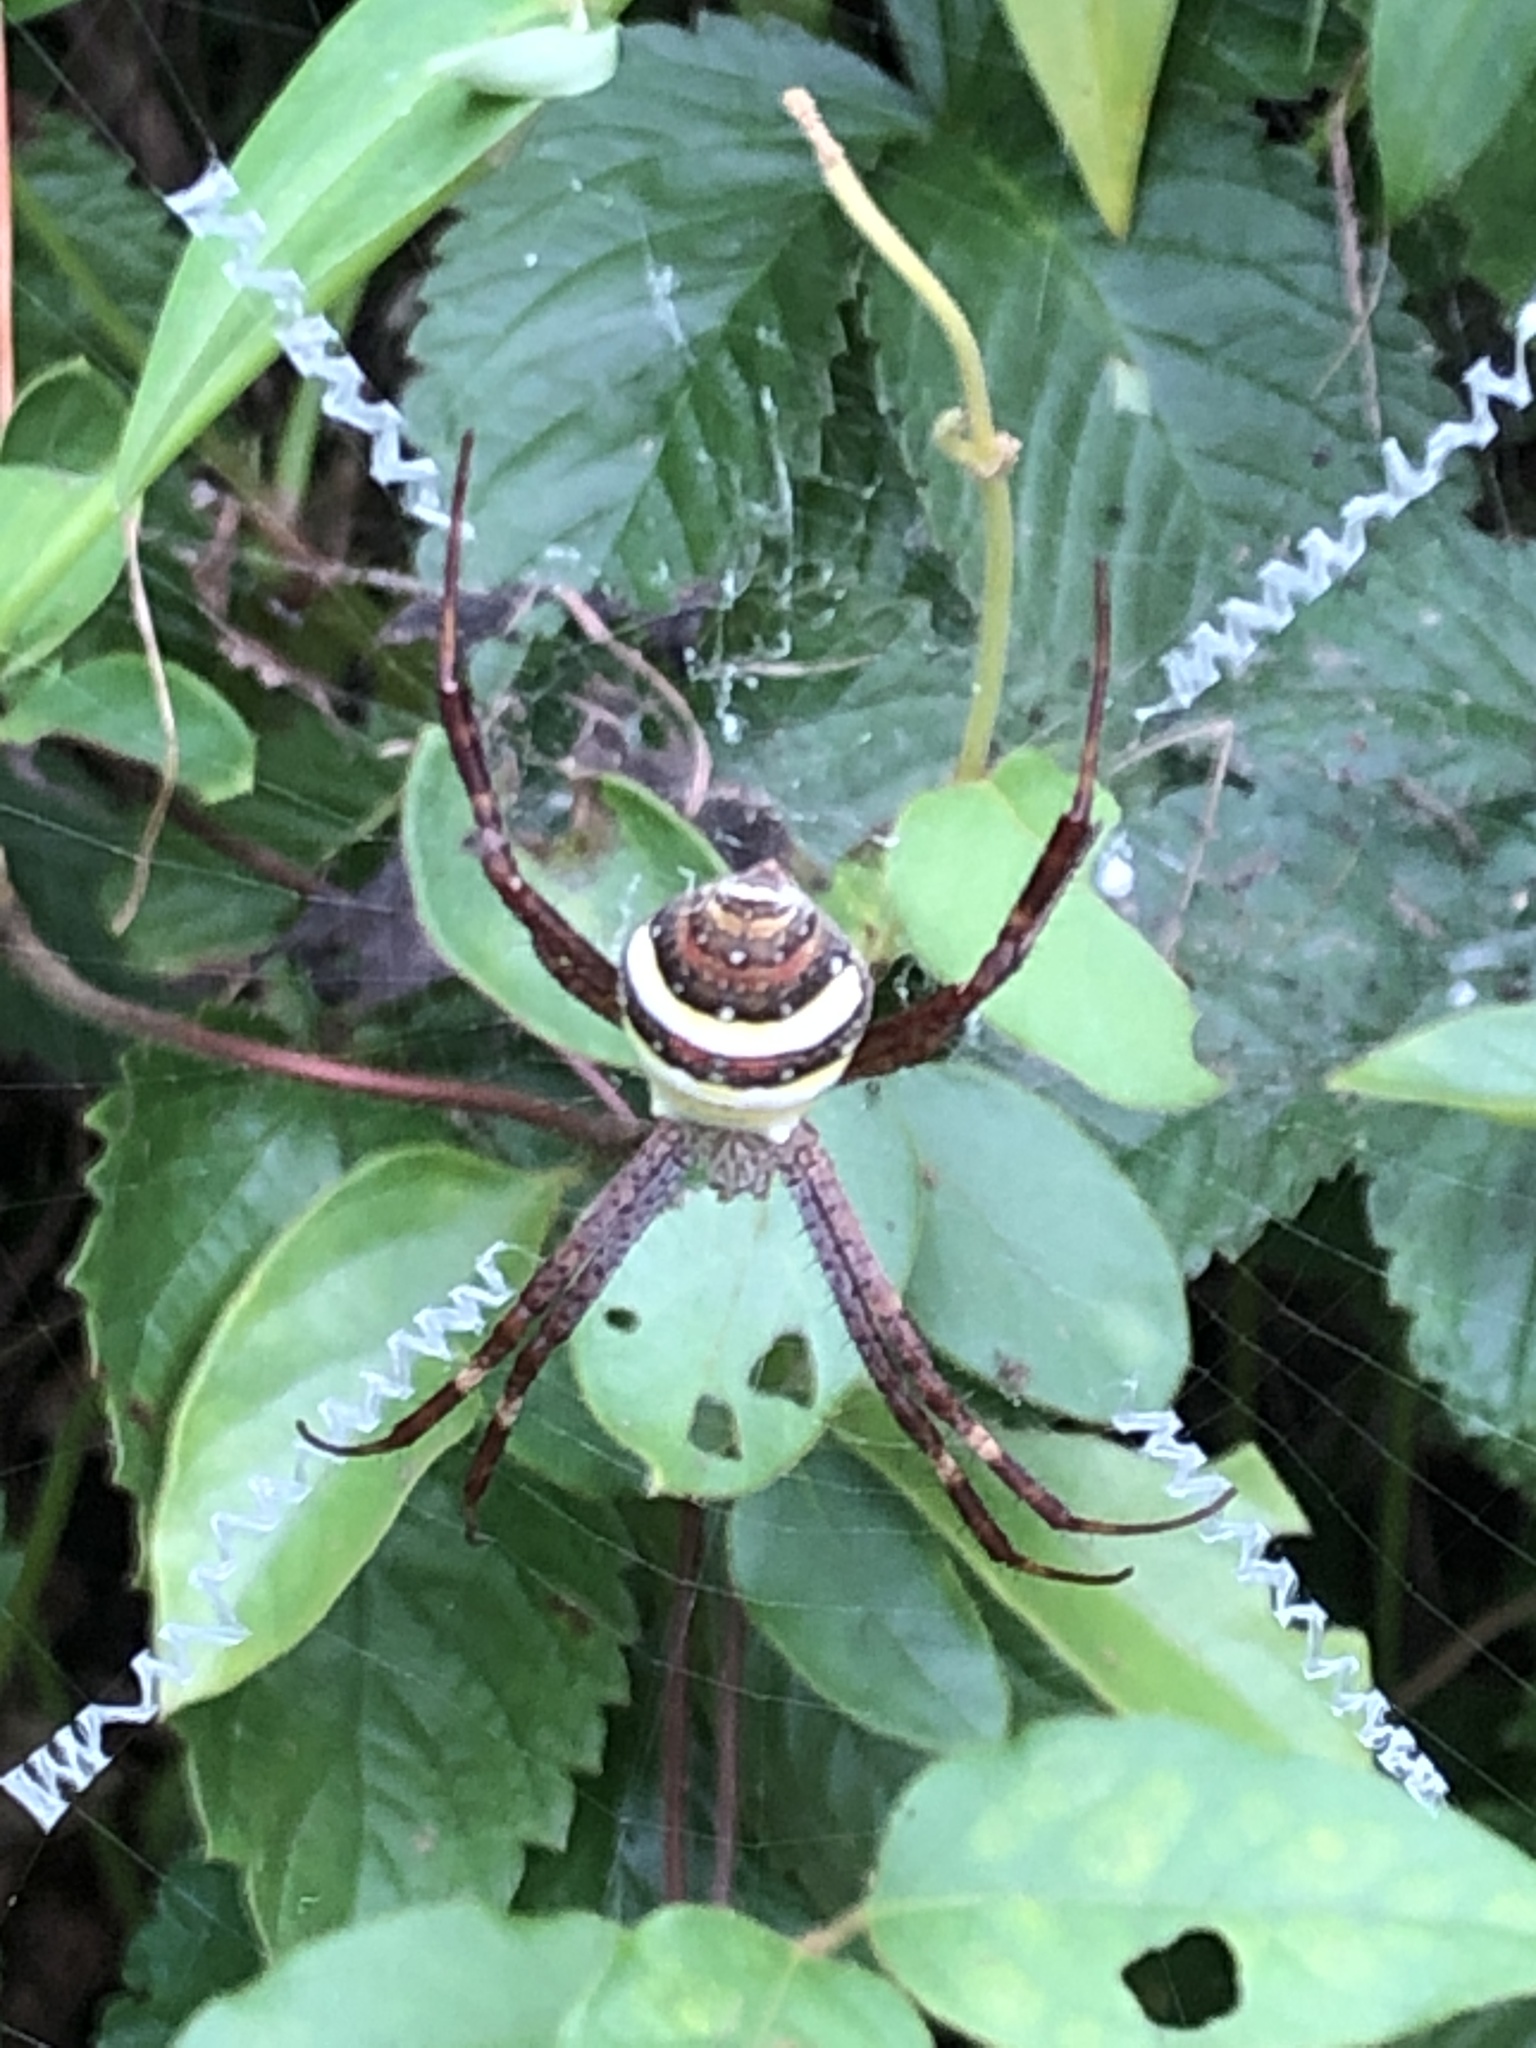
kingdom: Animalia
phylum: Arthropoda
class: Arachnida
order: Araneae
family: Araneidae
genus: Argiope
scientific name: Argiope minuta
